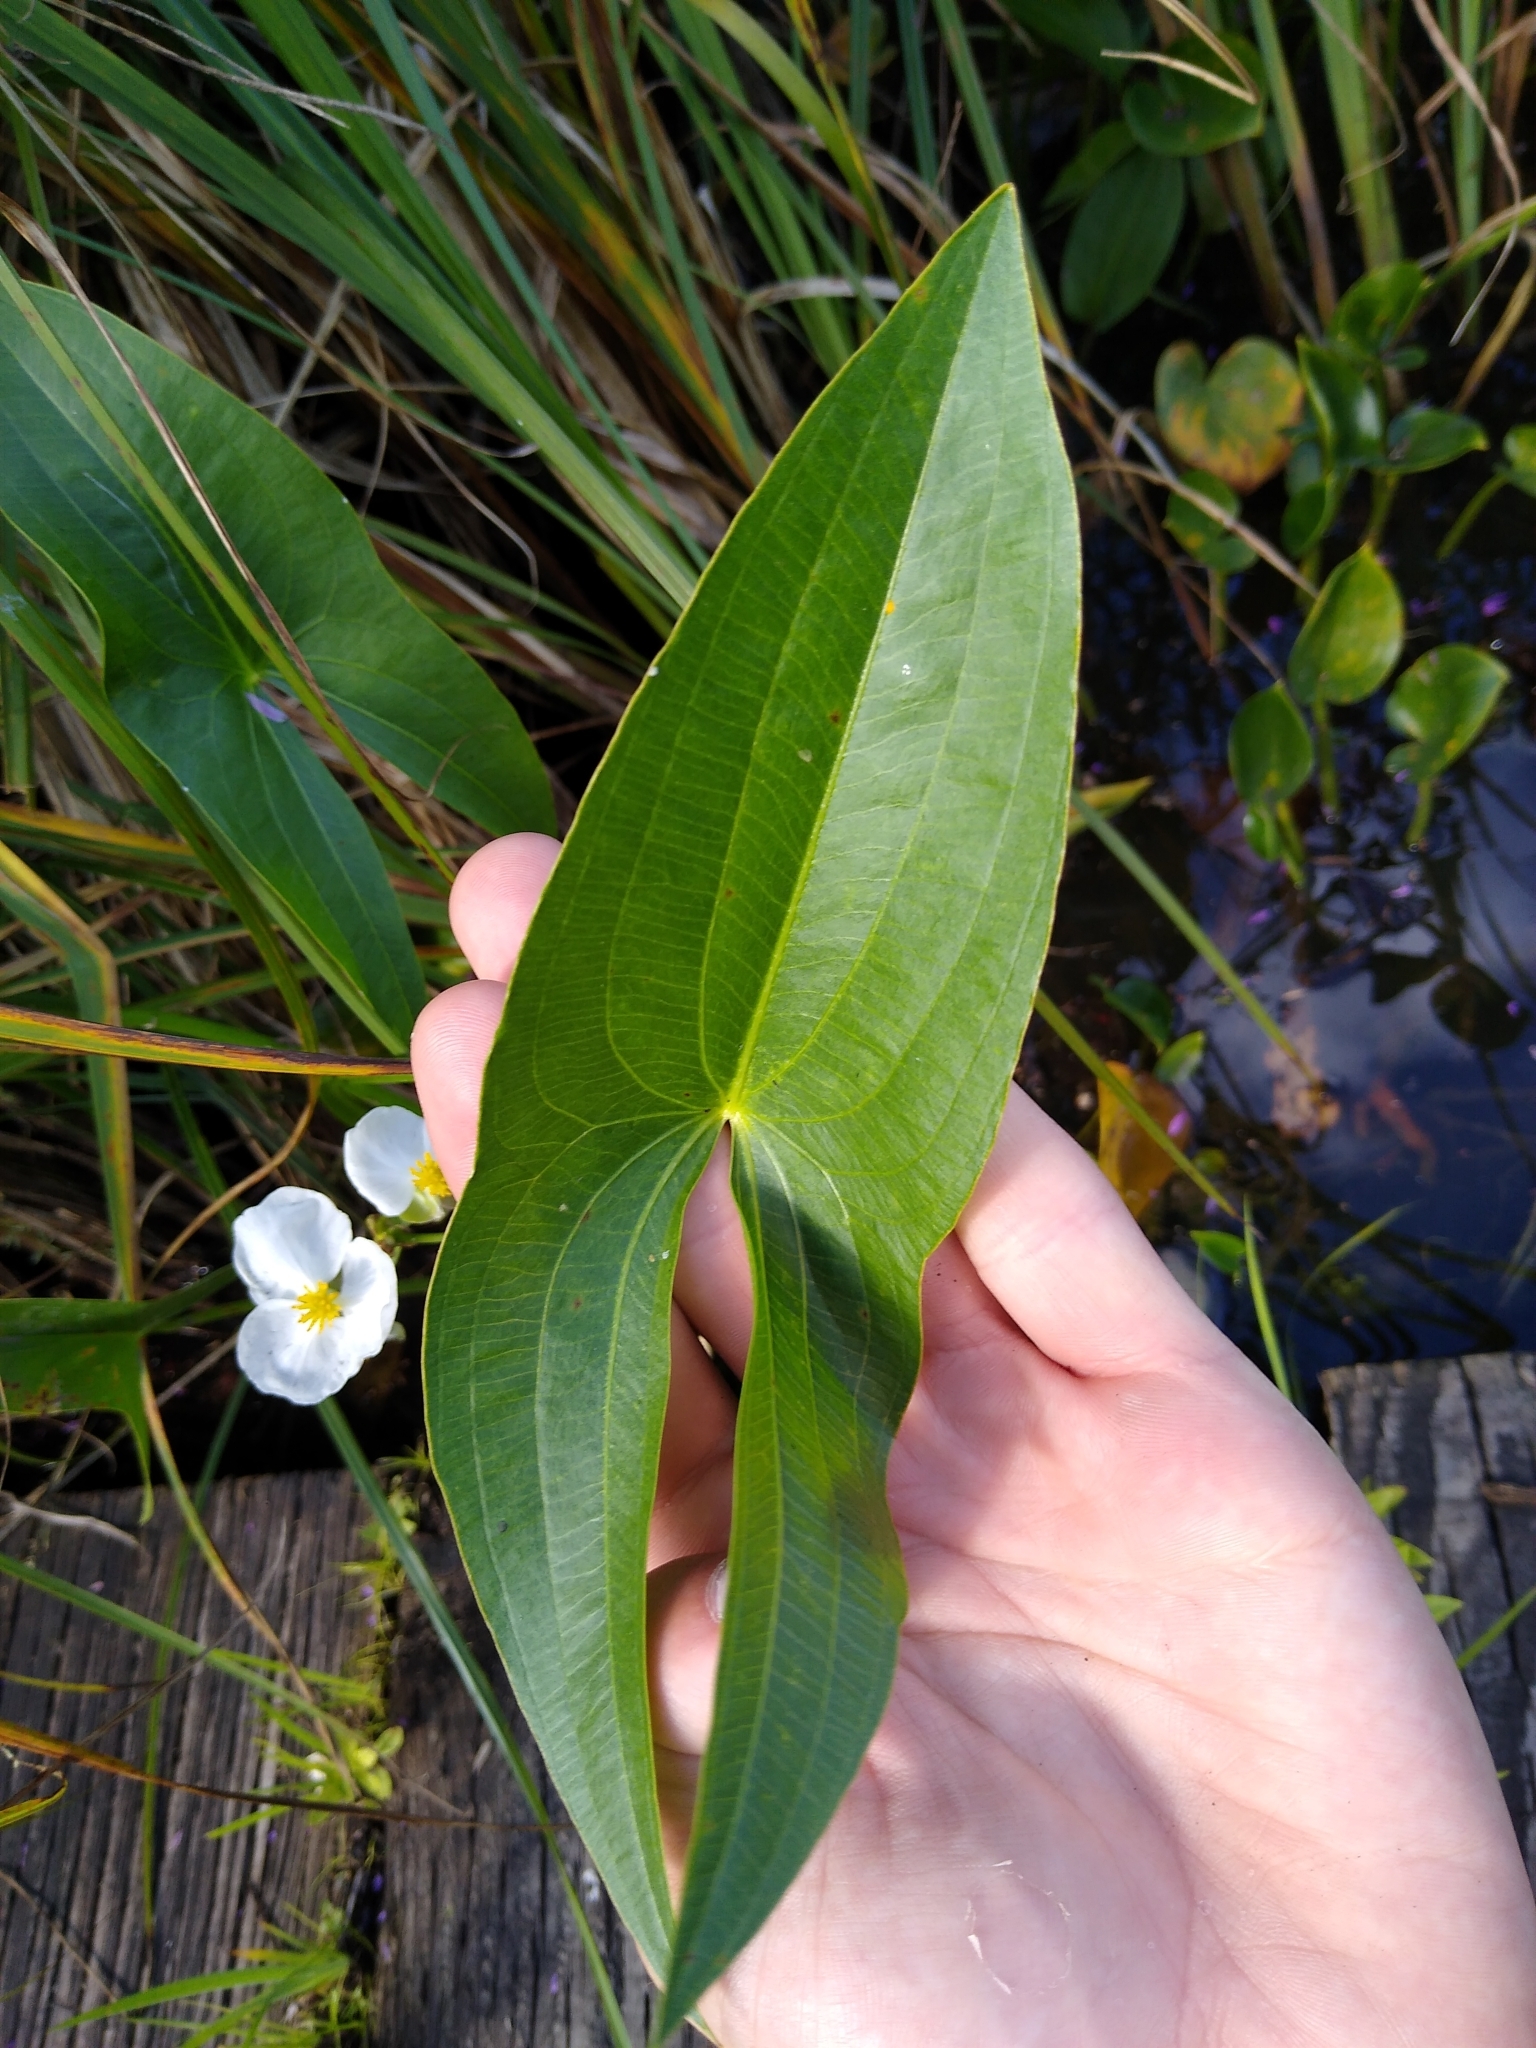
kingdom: Plantae
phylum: Tracheophyta
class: Liliopsida
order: Alismatales
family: Alismataceae
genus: Sagittaria
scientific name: Sagittaria latifolia
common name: Duck-potato
